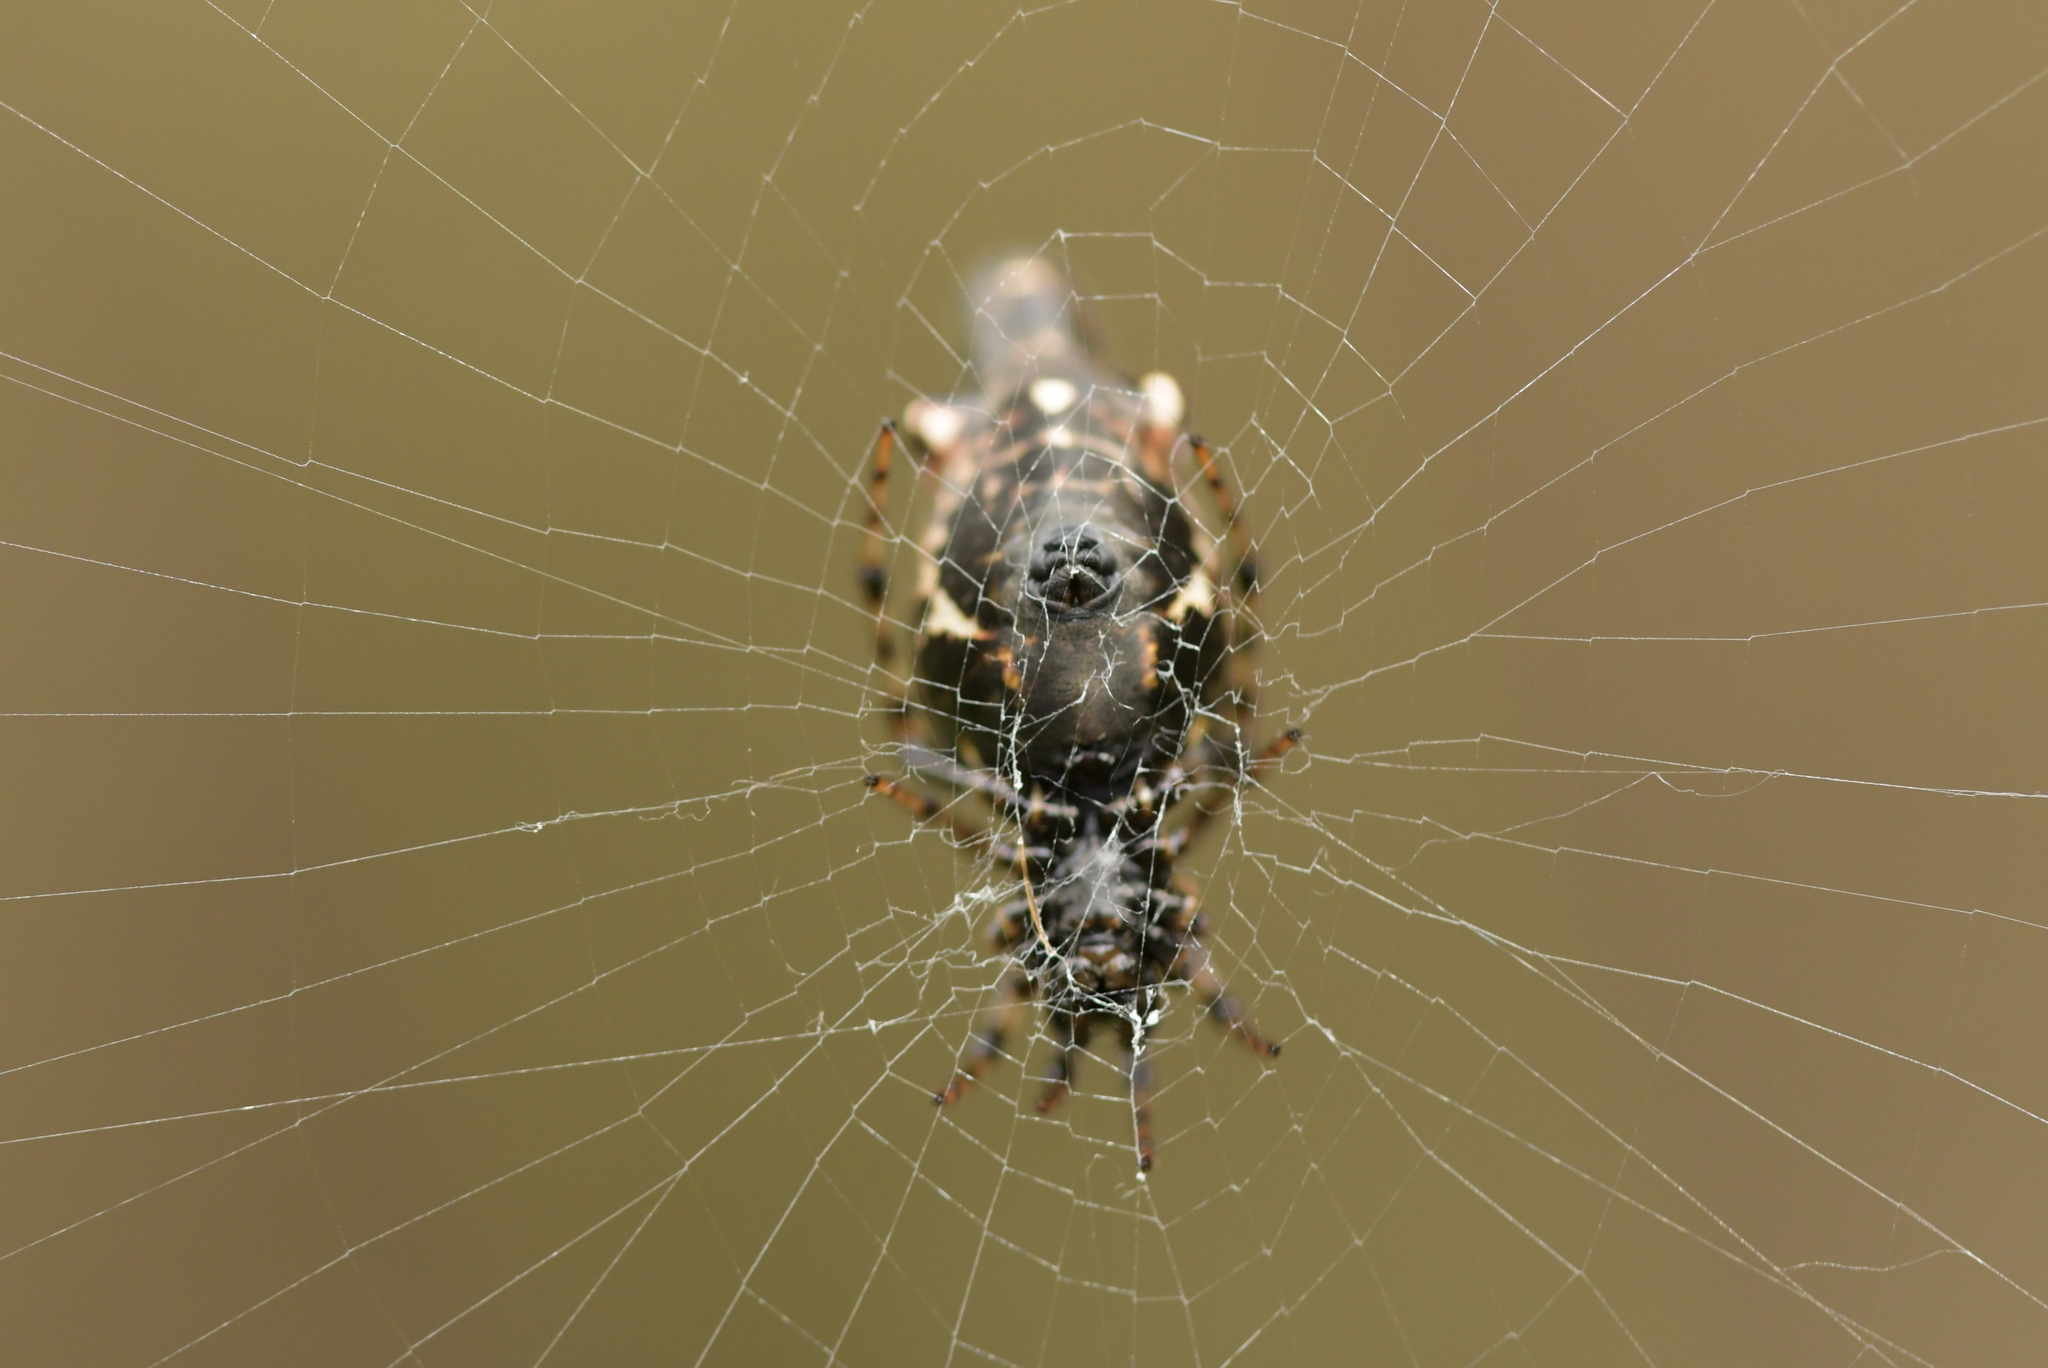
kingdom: Animalia
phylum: Arthropoda
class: Arachnida
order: Araneae
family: Araneidae
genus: Cyclosa
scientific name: Cyclosa trilobata
